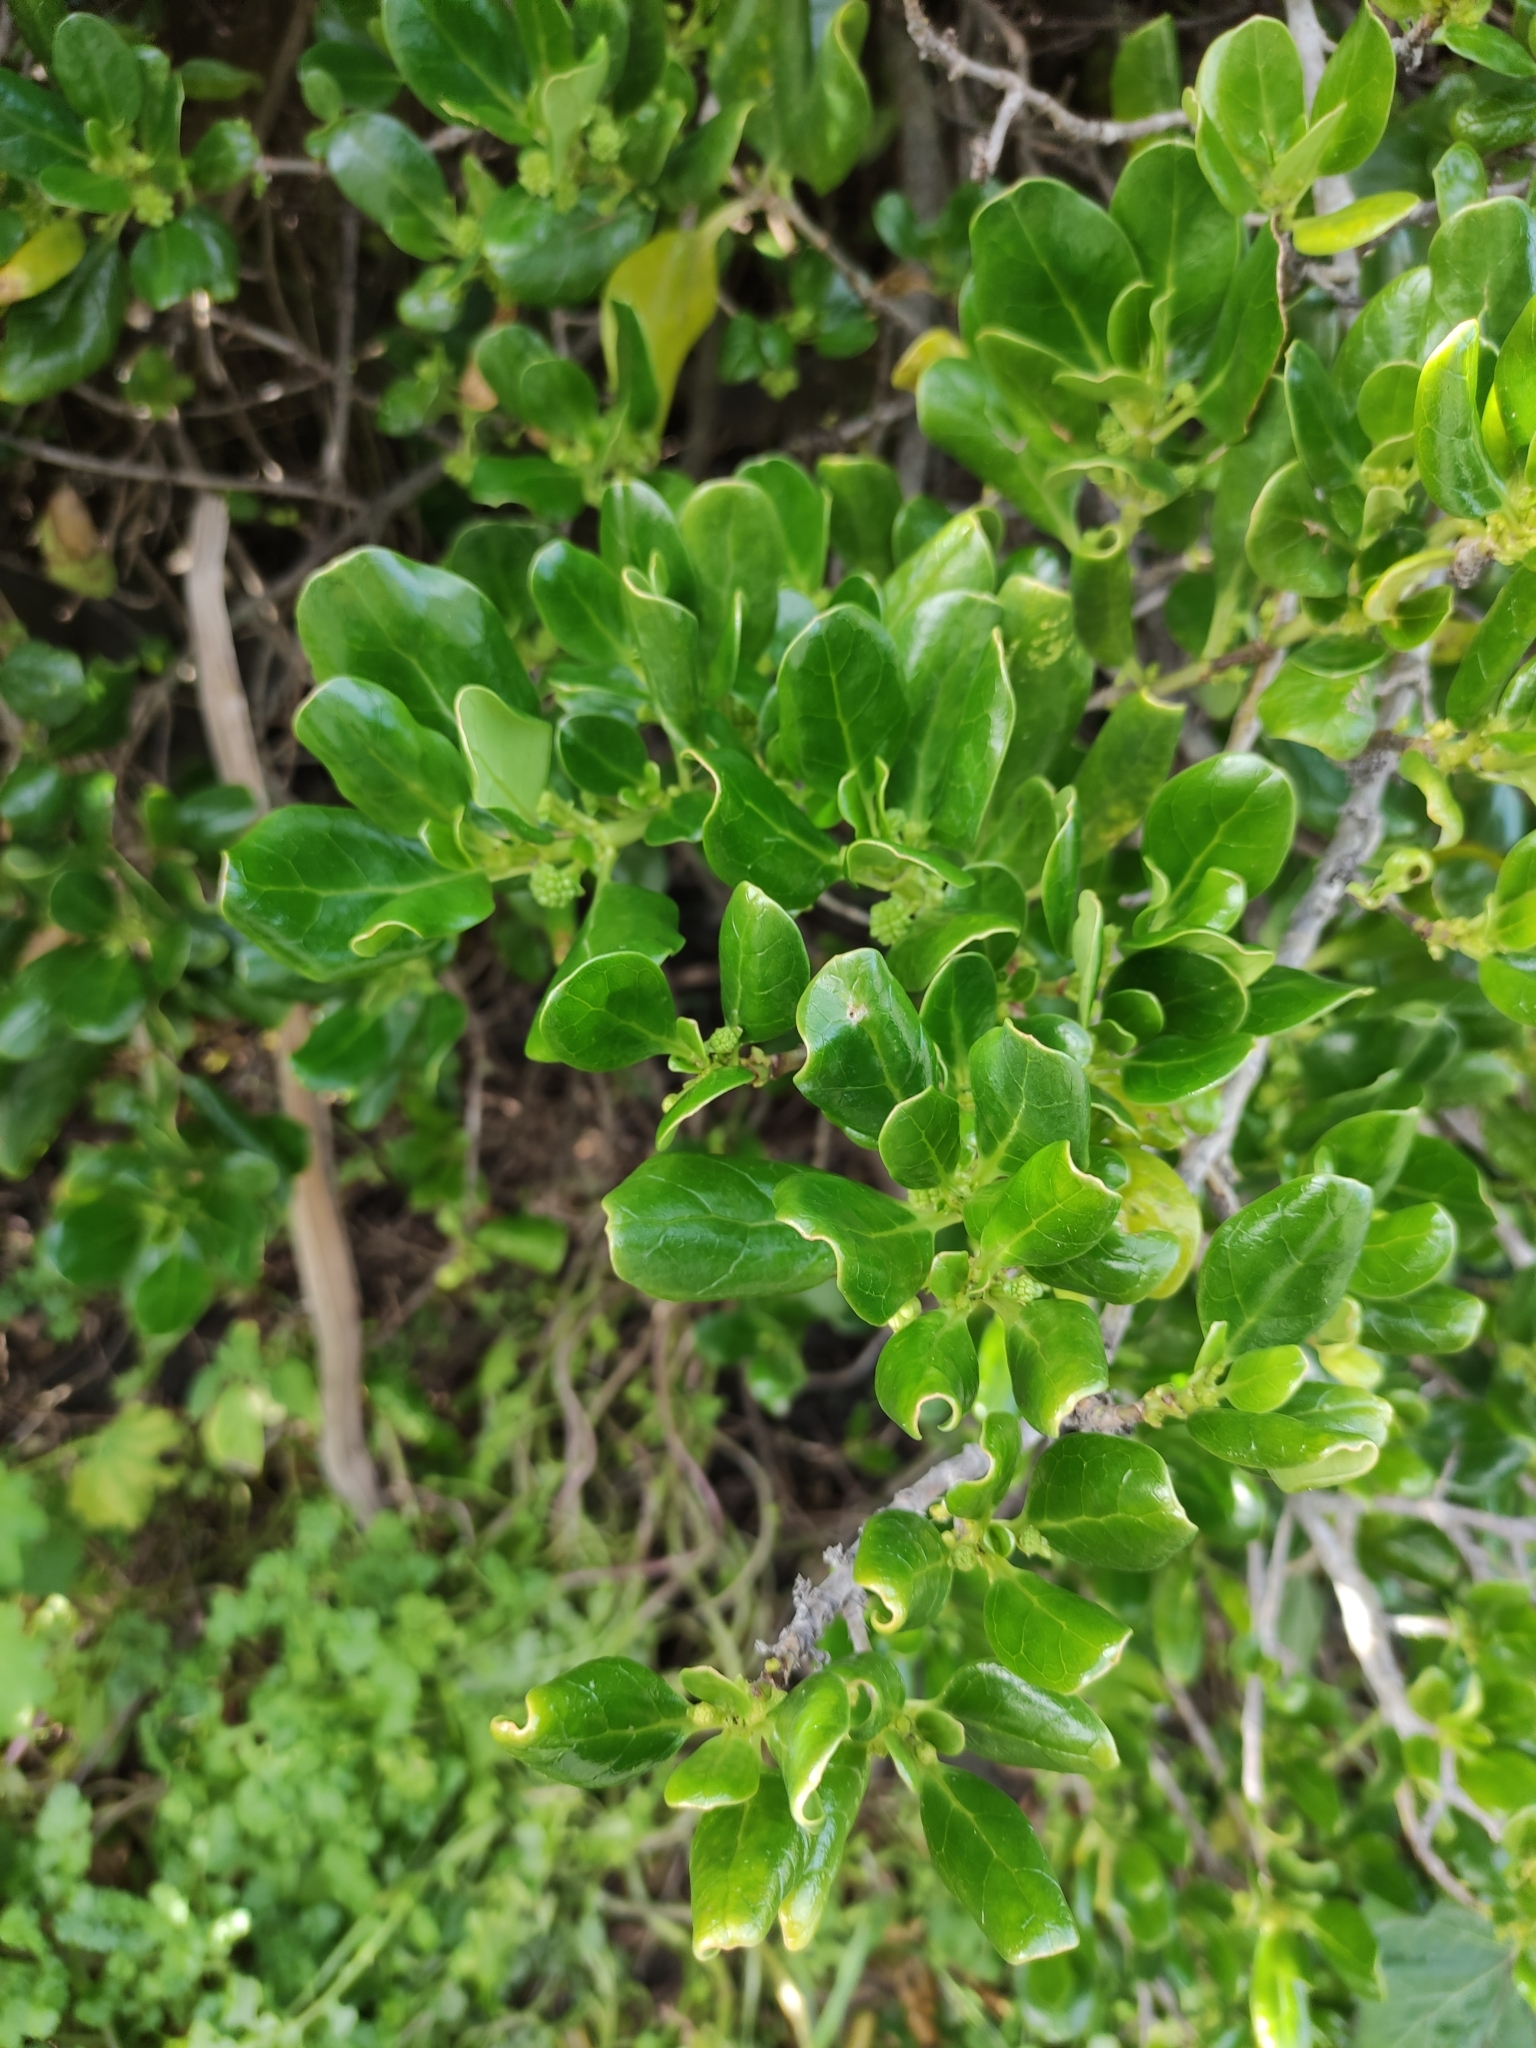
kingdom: Plantae
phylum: Tracheophyta
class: Magnoliopsida
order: Gentianales
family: Rubiaceae
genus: Coprosma
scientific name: Coprosma repens
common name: Tree bedstraw
